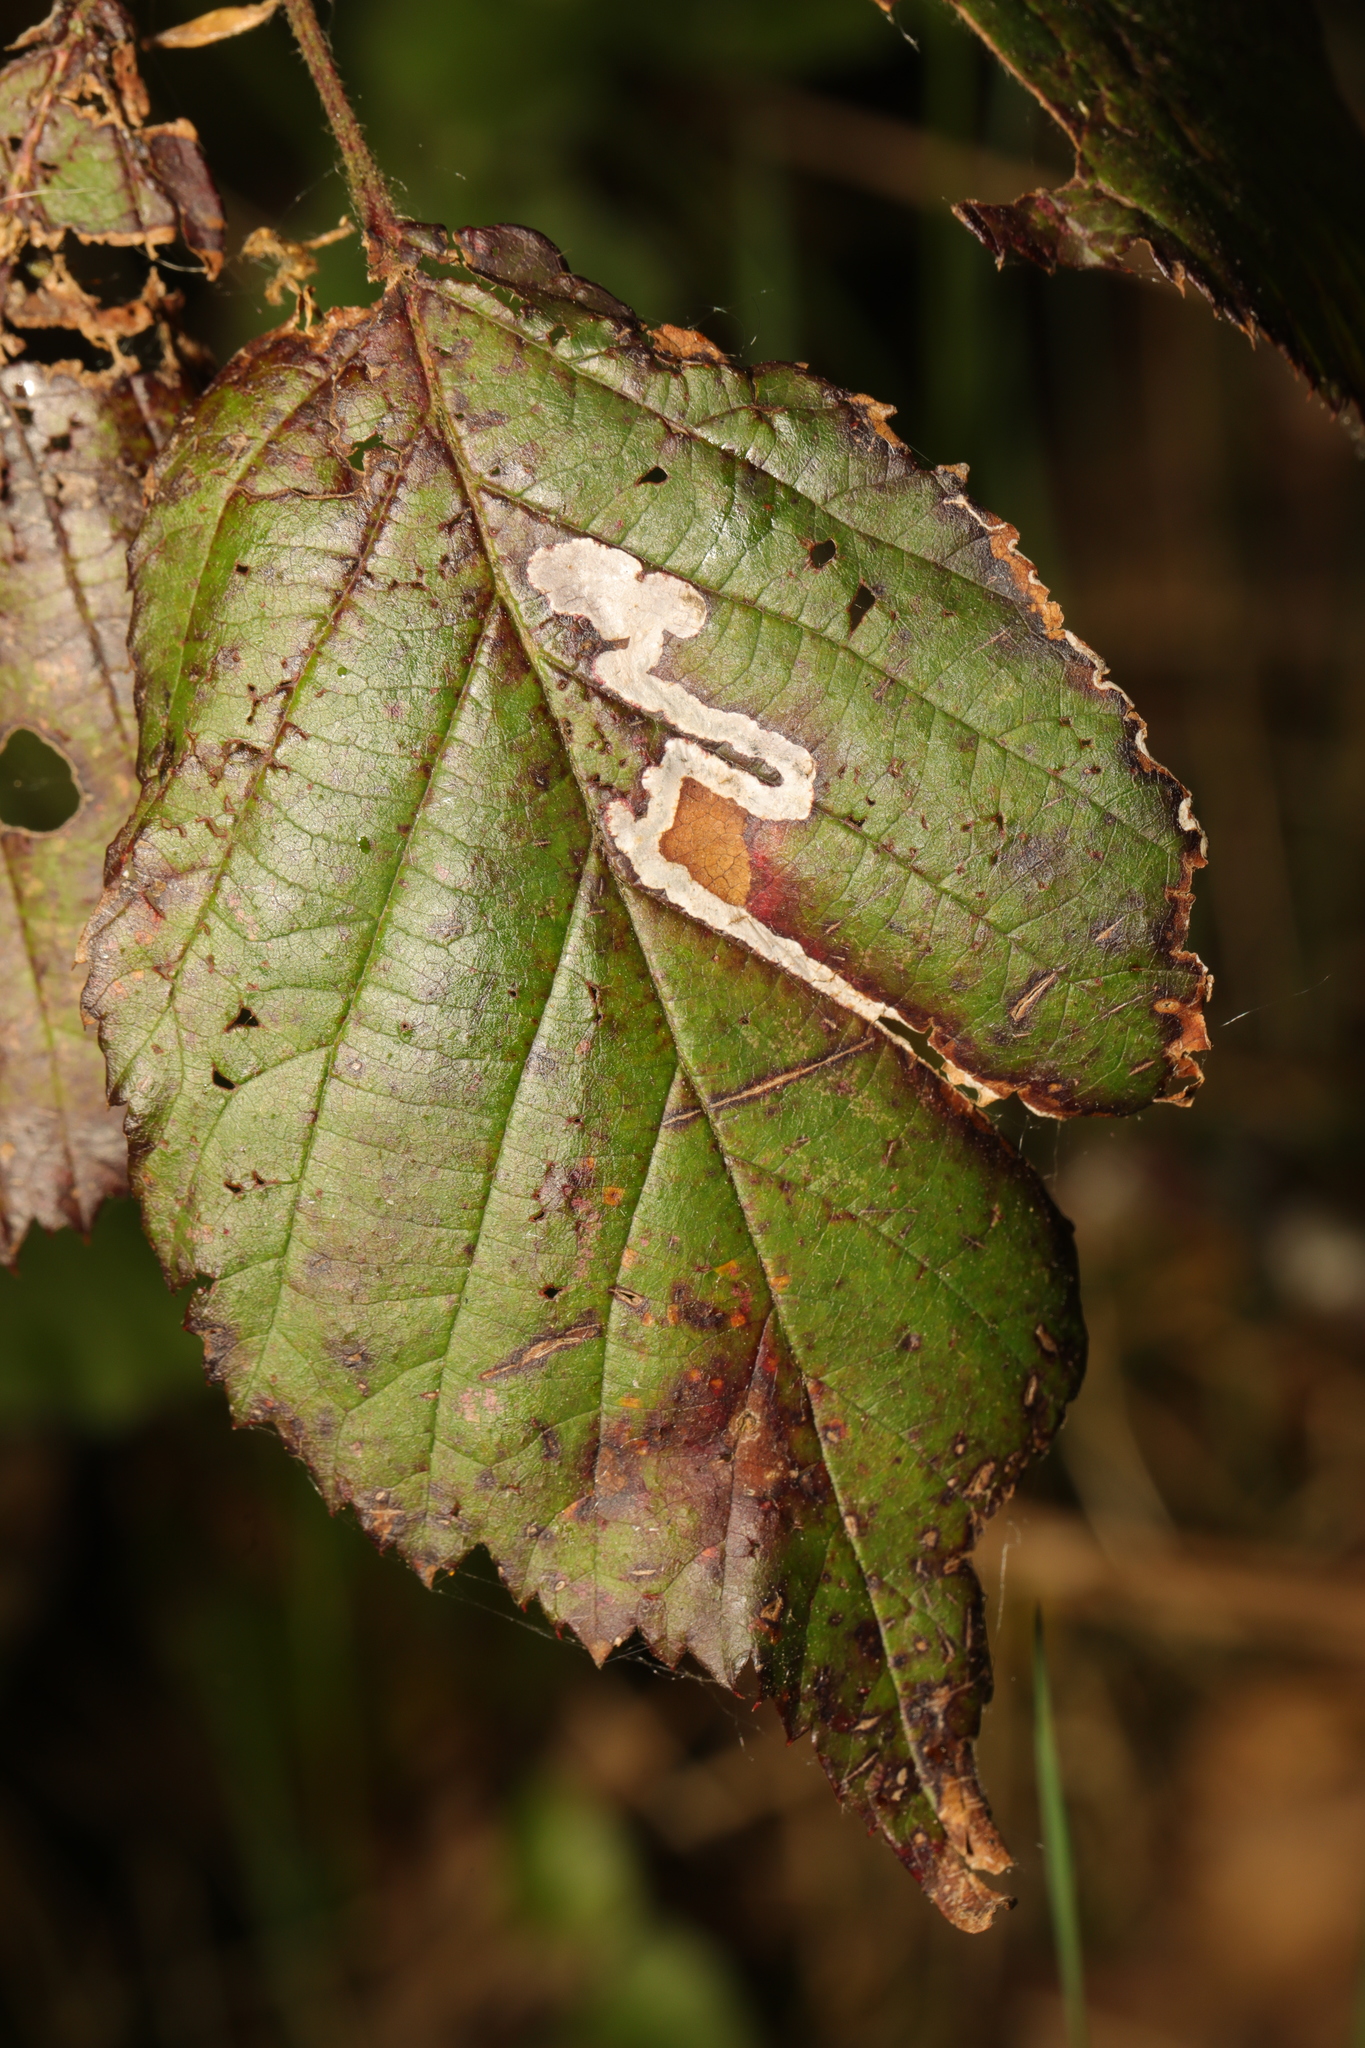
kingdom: Animalia
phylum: Arthropoda
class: Insecta
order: Lepidoptera
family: Nepticulidae
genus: Stigmella
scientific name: Stigmella aurella
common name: Golden pigmy
